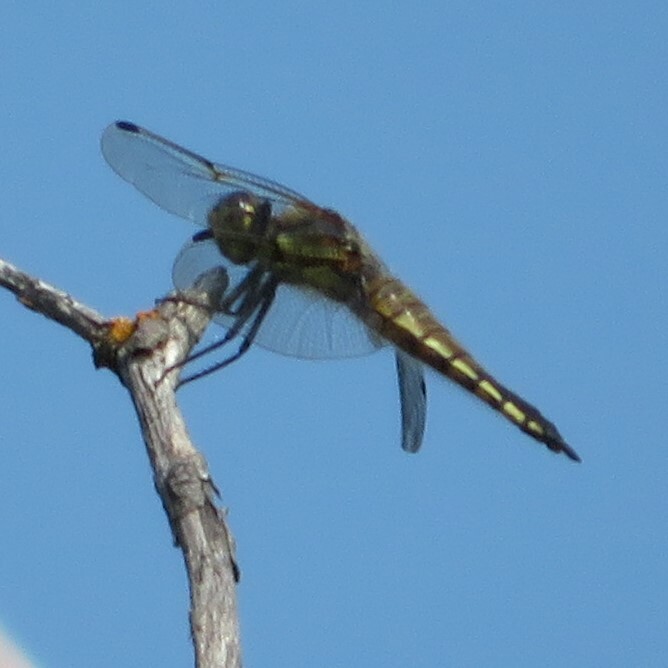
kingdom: Animalia
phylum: Arthropoda
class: Insecta
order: Odonata
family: Libellulidae
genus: Libellula
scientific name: Libellula quadrimaculata
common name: Four-spotted chaser
